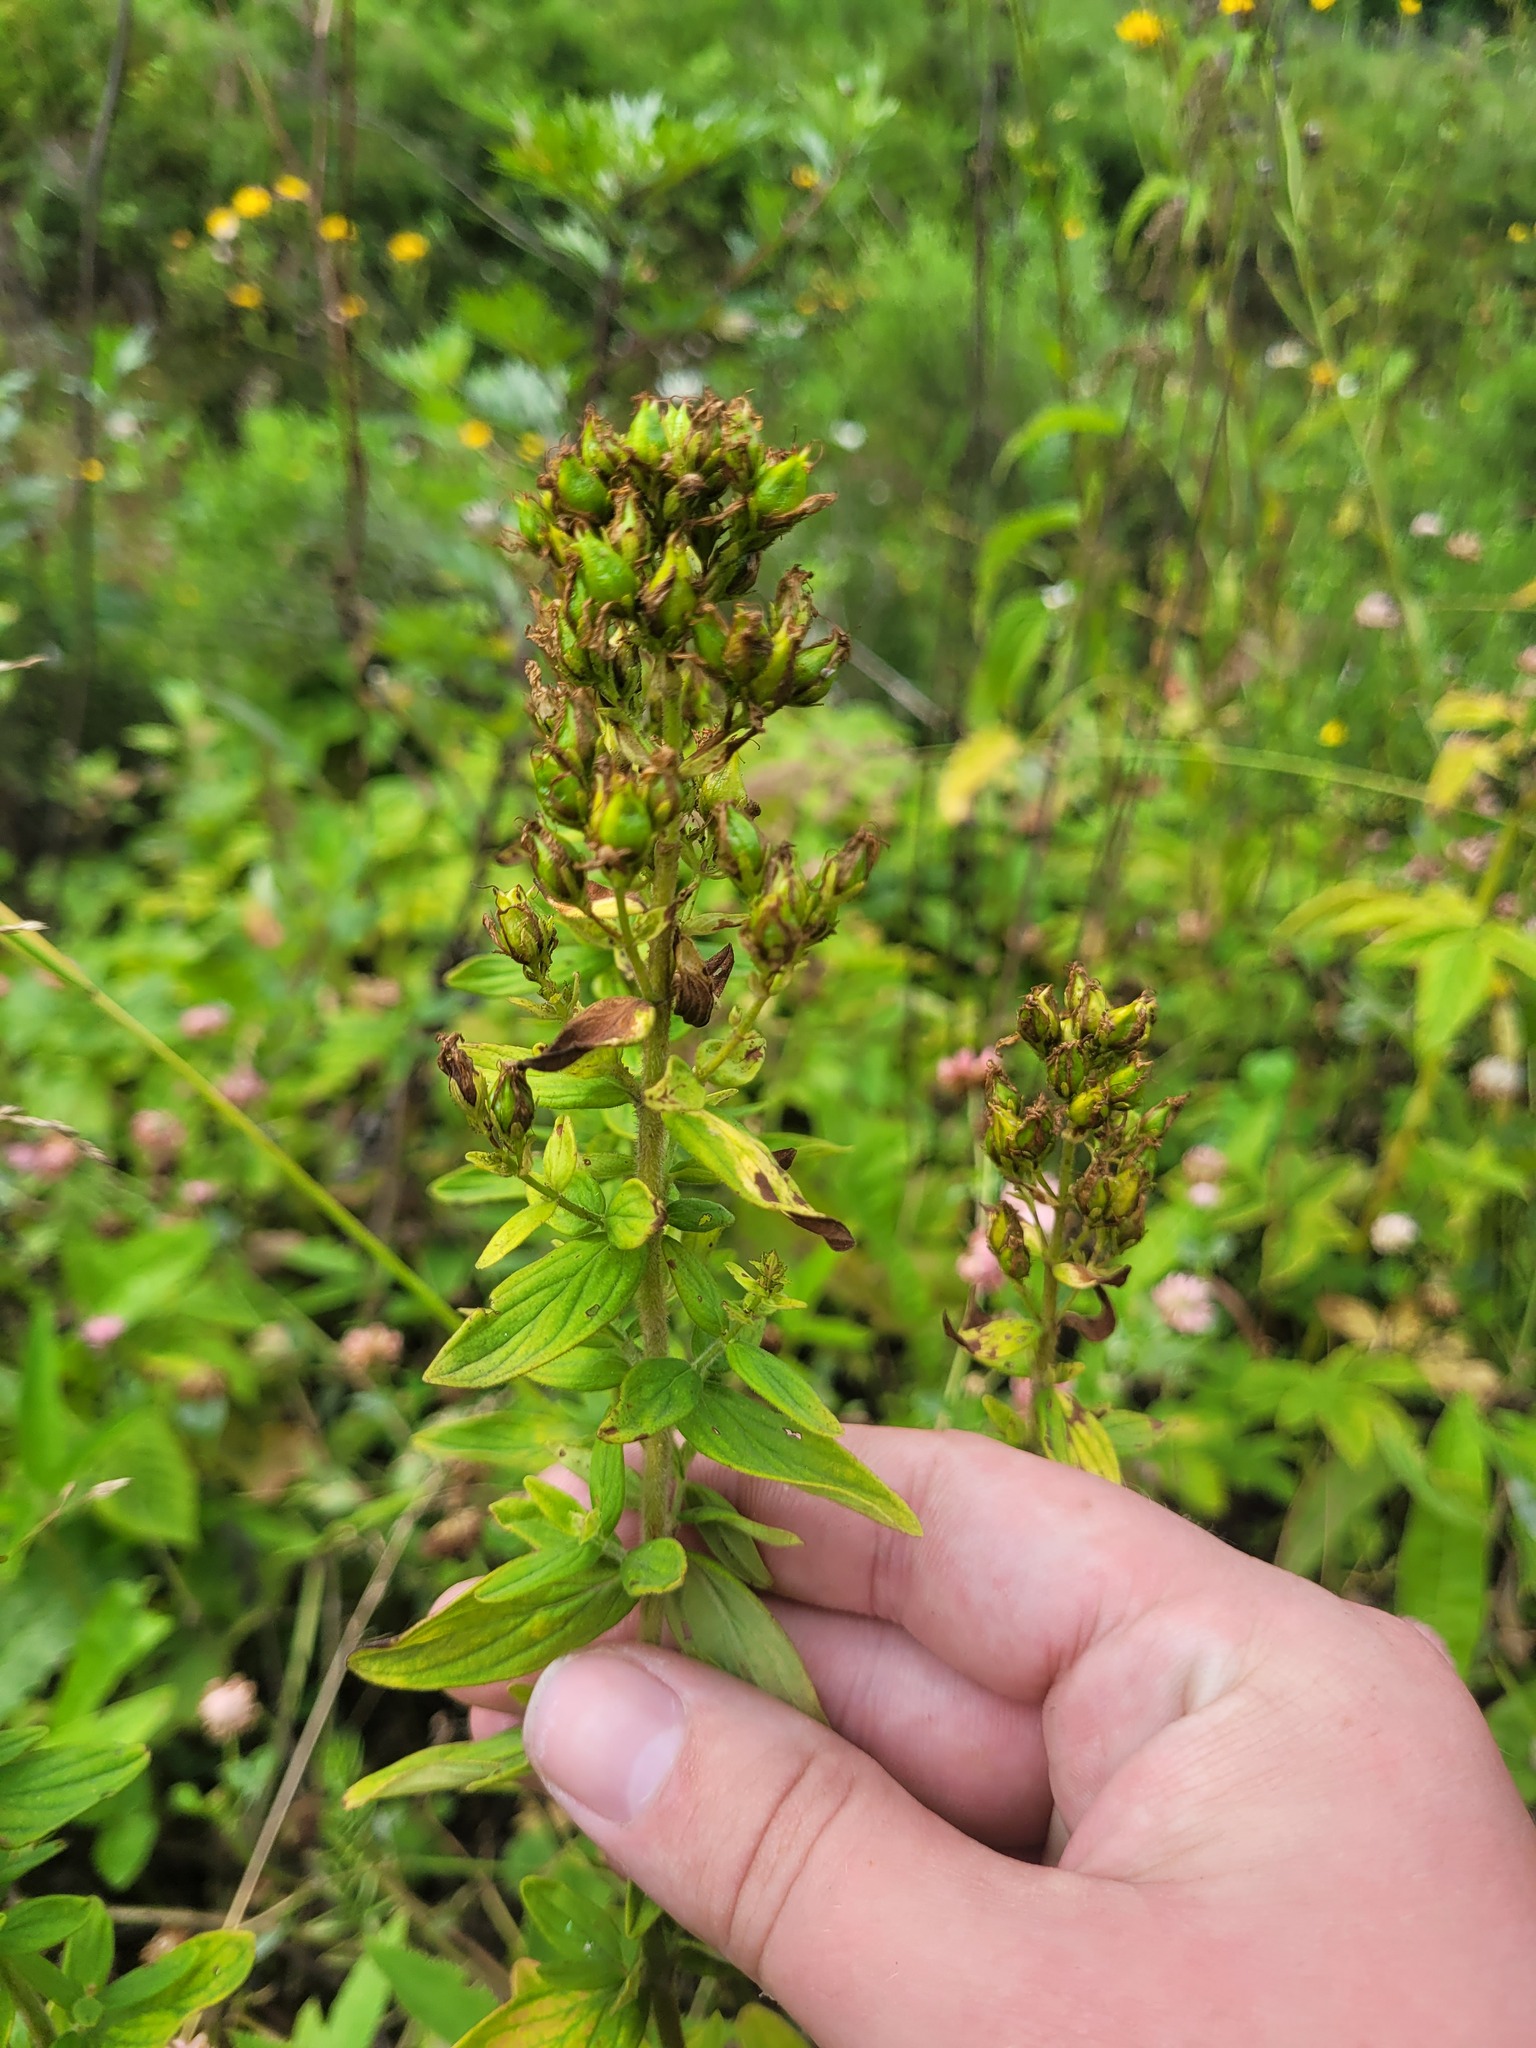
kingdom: Plantae
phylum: Tracheophyta
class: Magnoliopsida
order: Malpighiales
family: Hypericaceae
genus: Hypericum
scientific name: Hypericum hirsutum
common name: Hairy st. john's-wort
